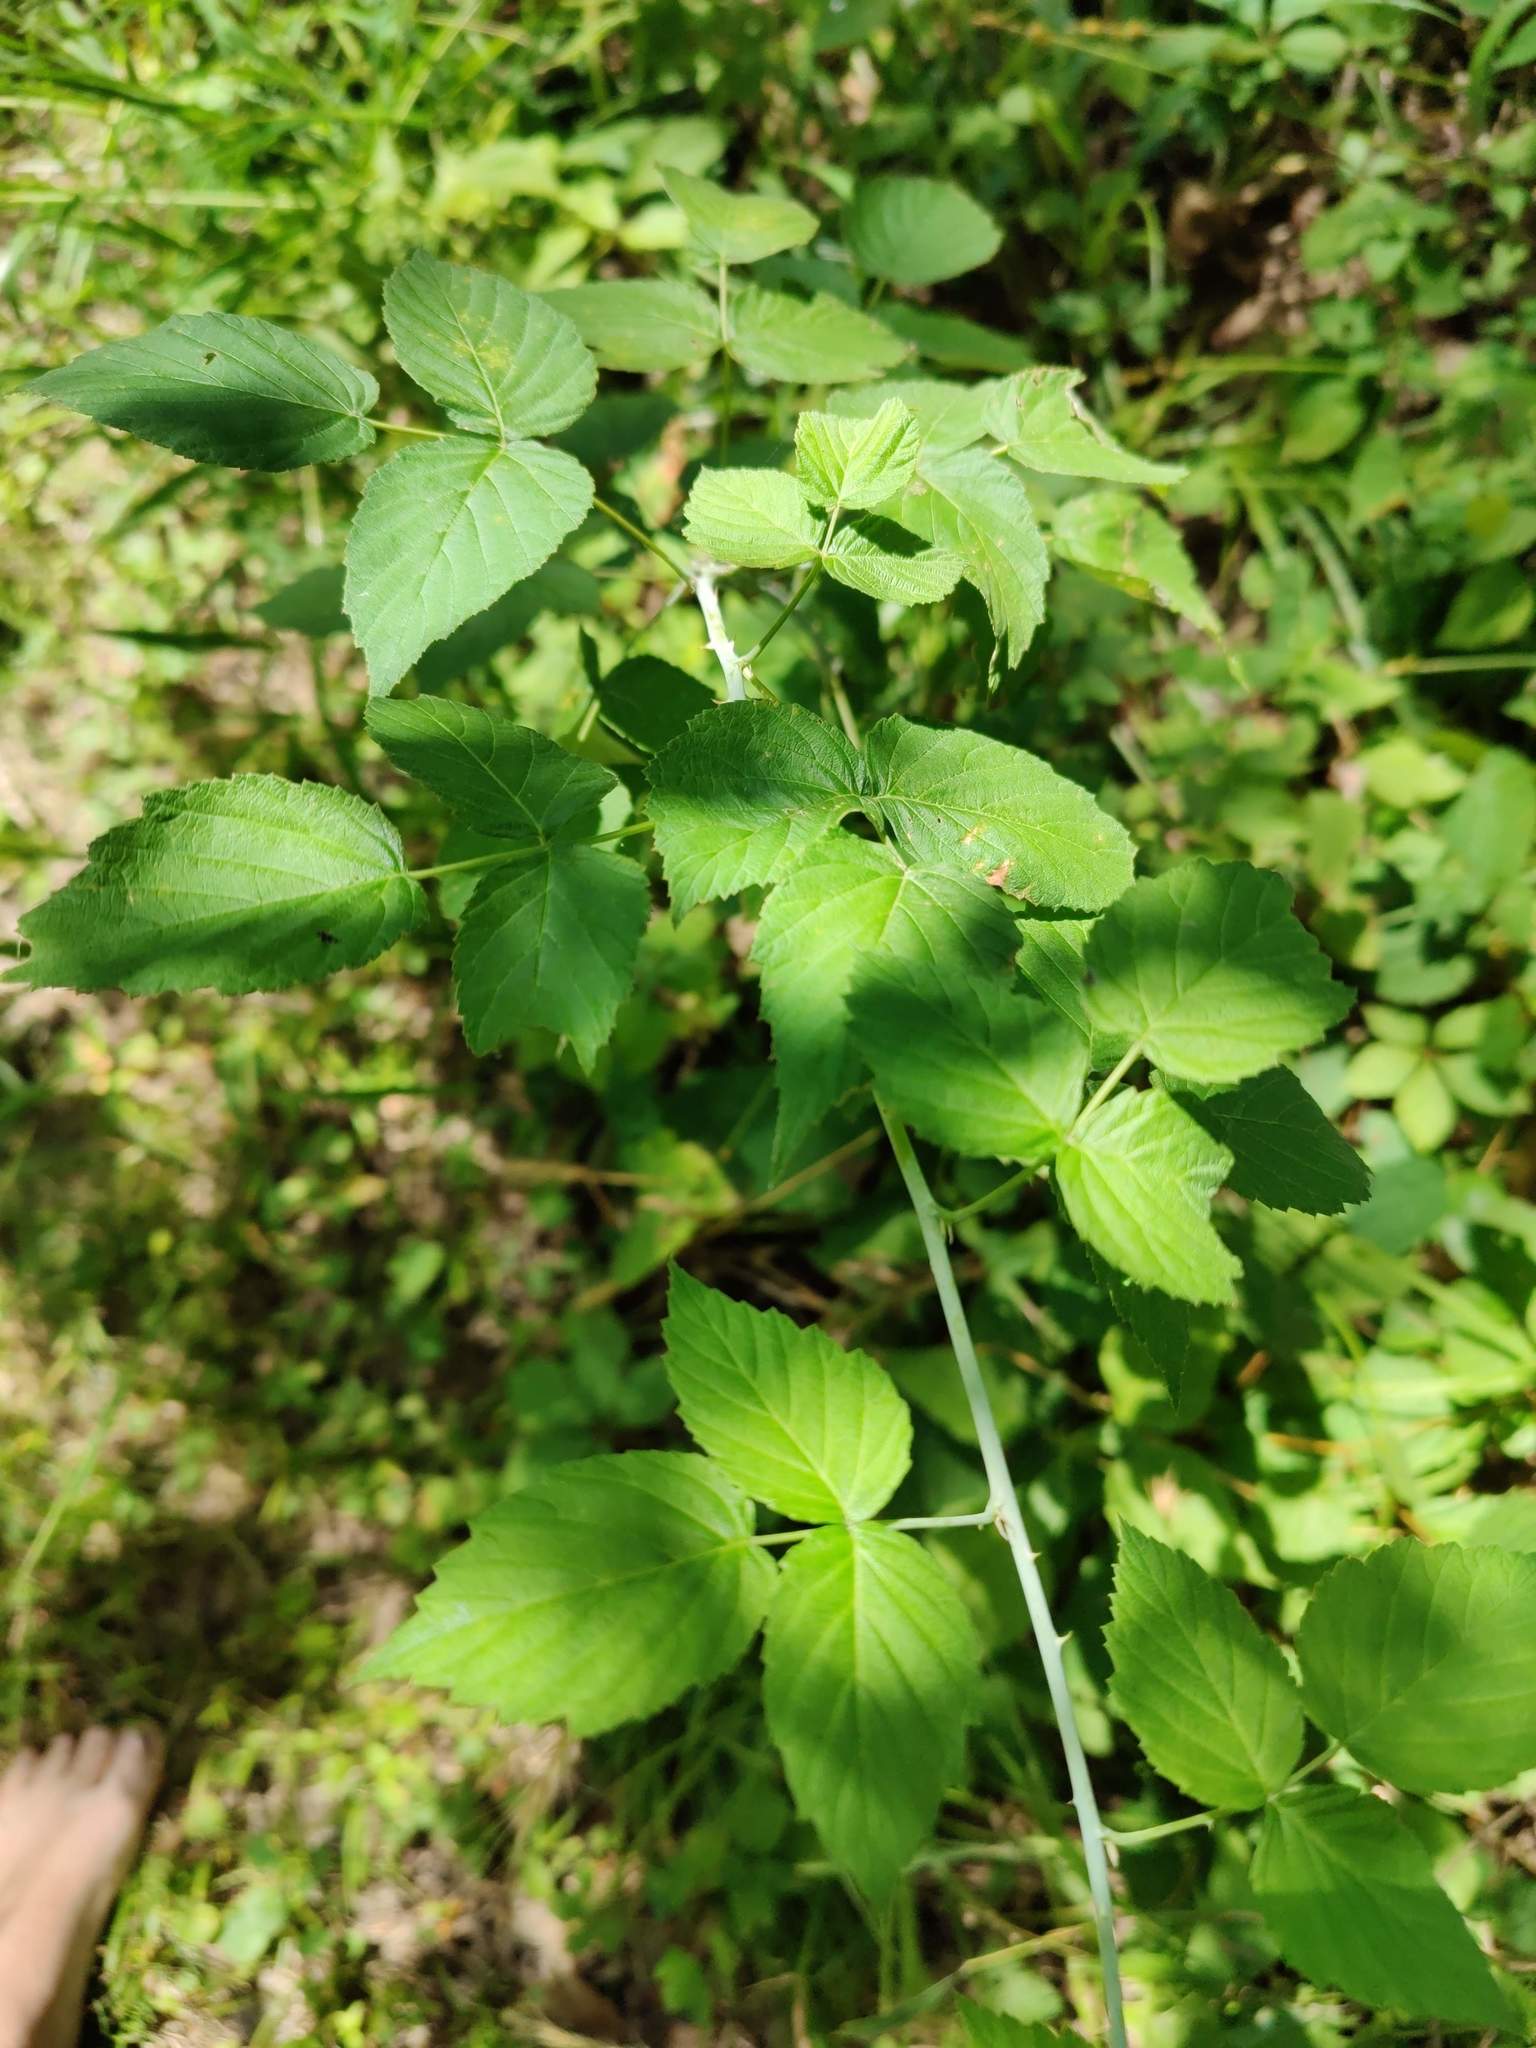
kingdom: Plantae
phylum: Tracheophyta
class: Magnoliopsida
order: Rosales
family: Rosaceae
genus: Rubus
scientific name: Rubus occidentalis
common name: Black raspberry
